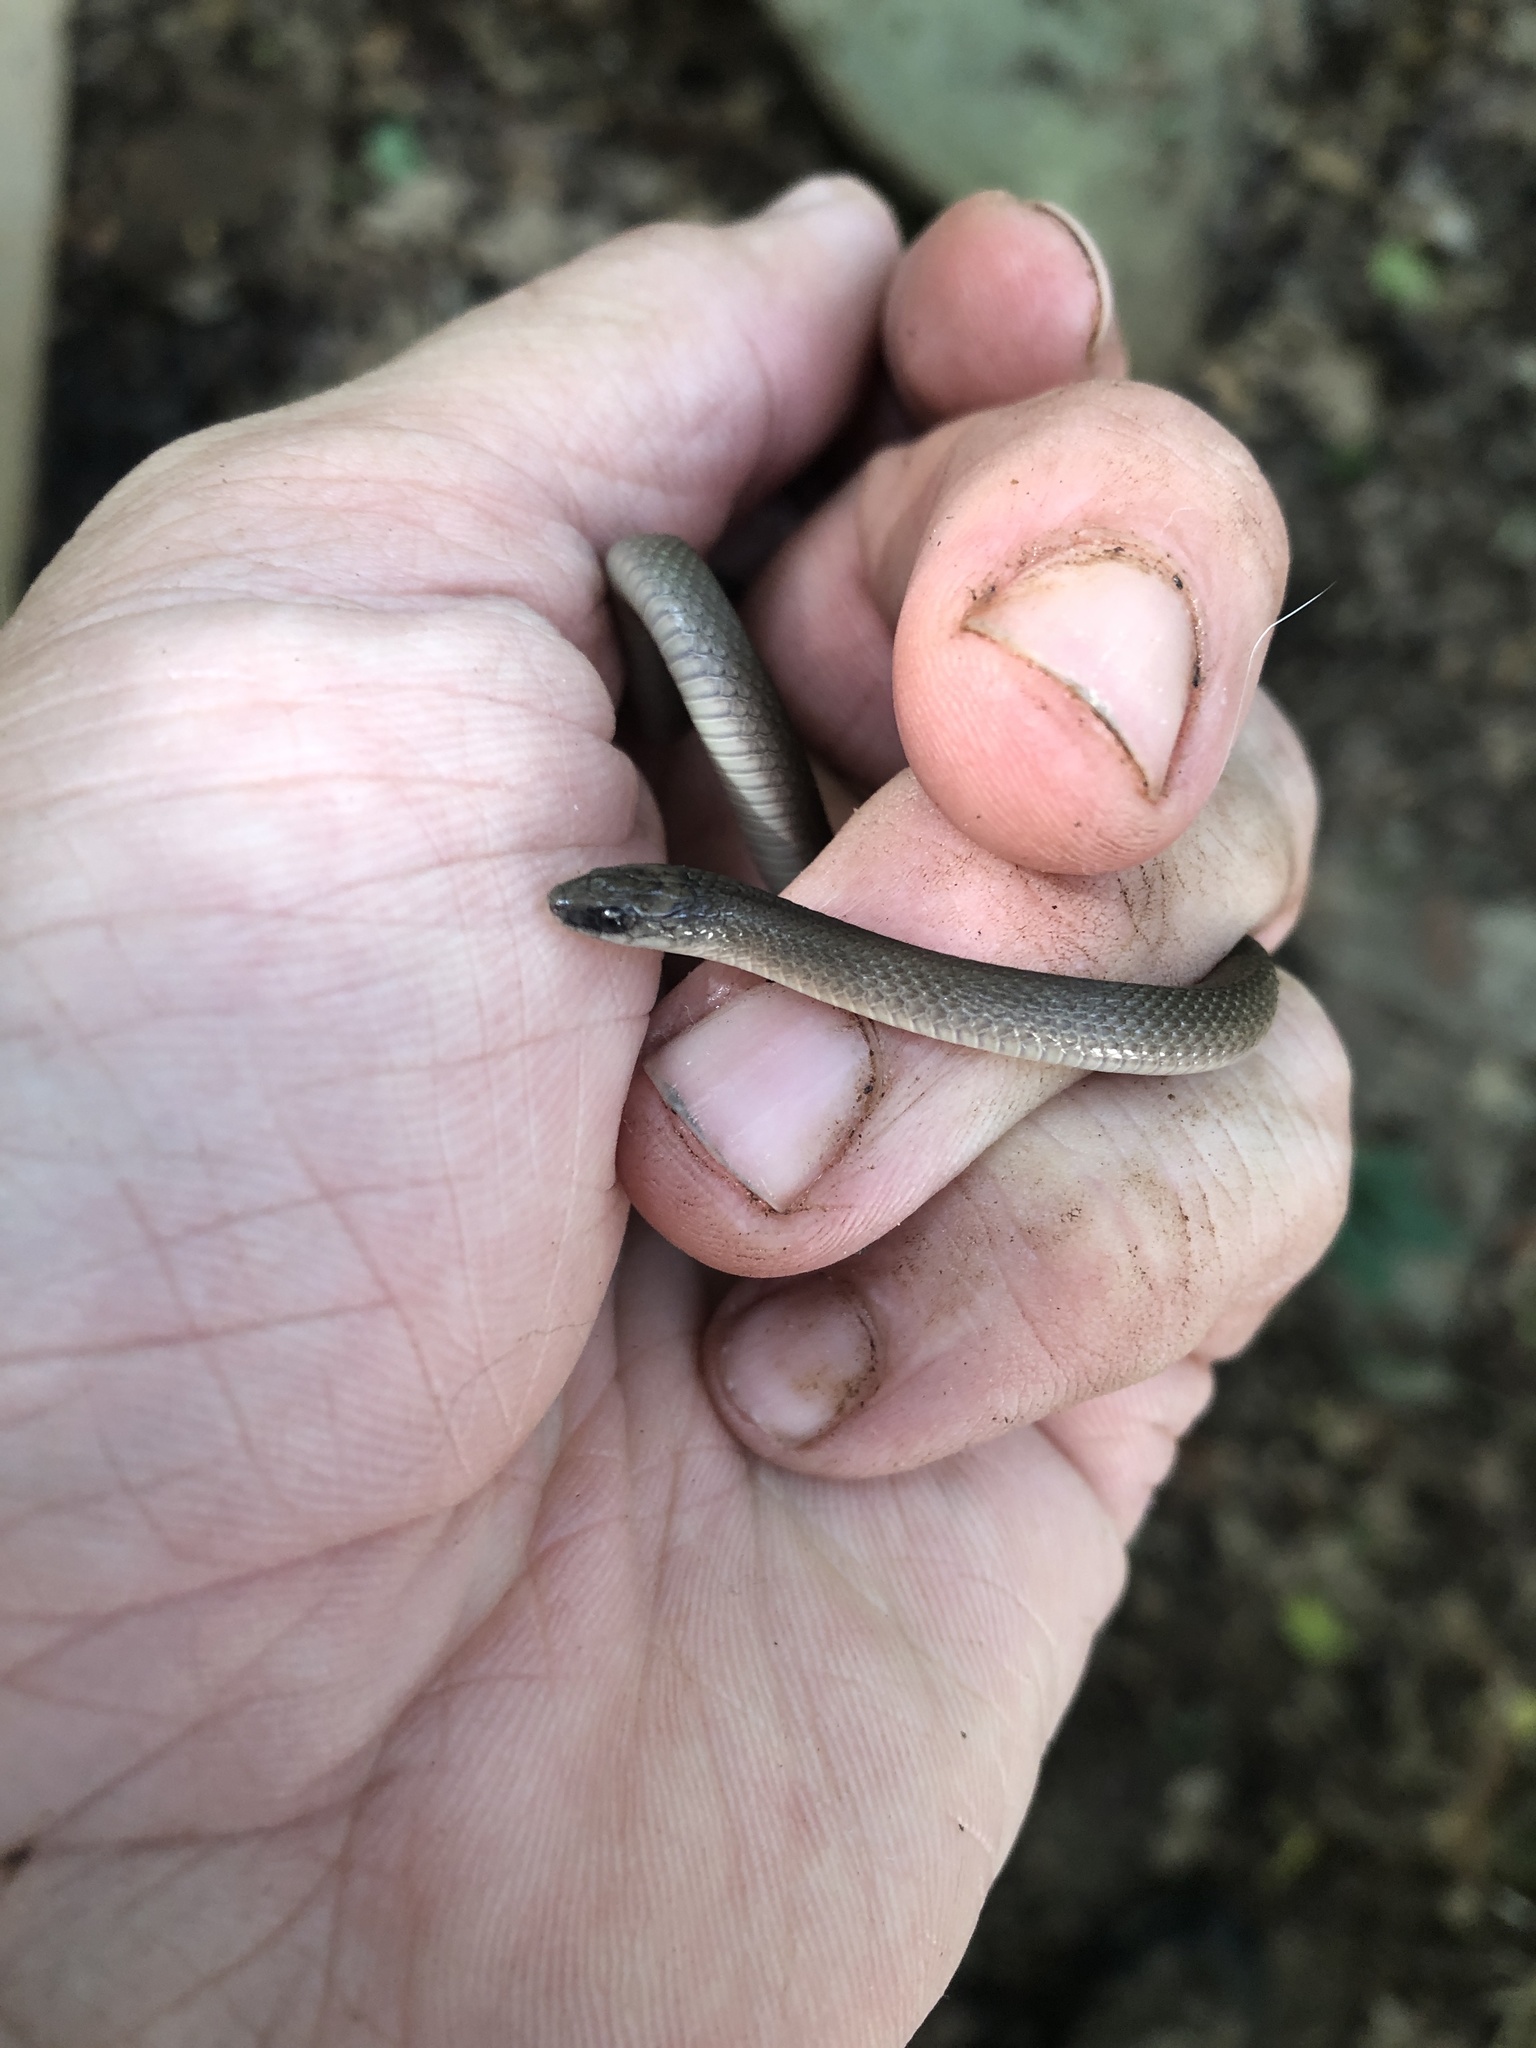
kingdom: Animalia
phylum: Chordata
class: Squamata
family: Colubridae
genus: Haldea
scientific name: Haldea striatula
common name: Rough earth snake
